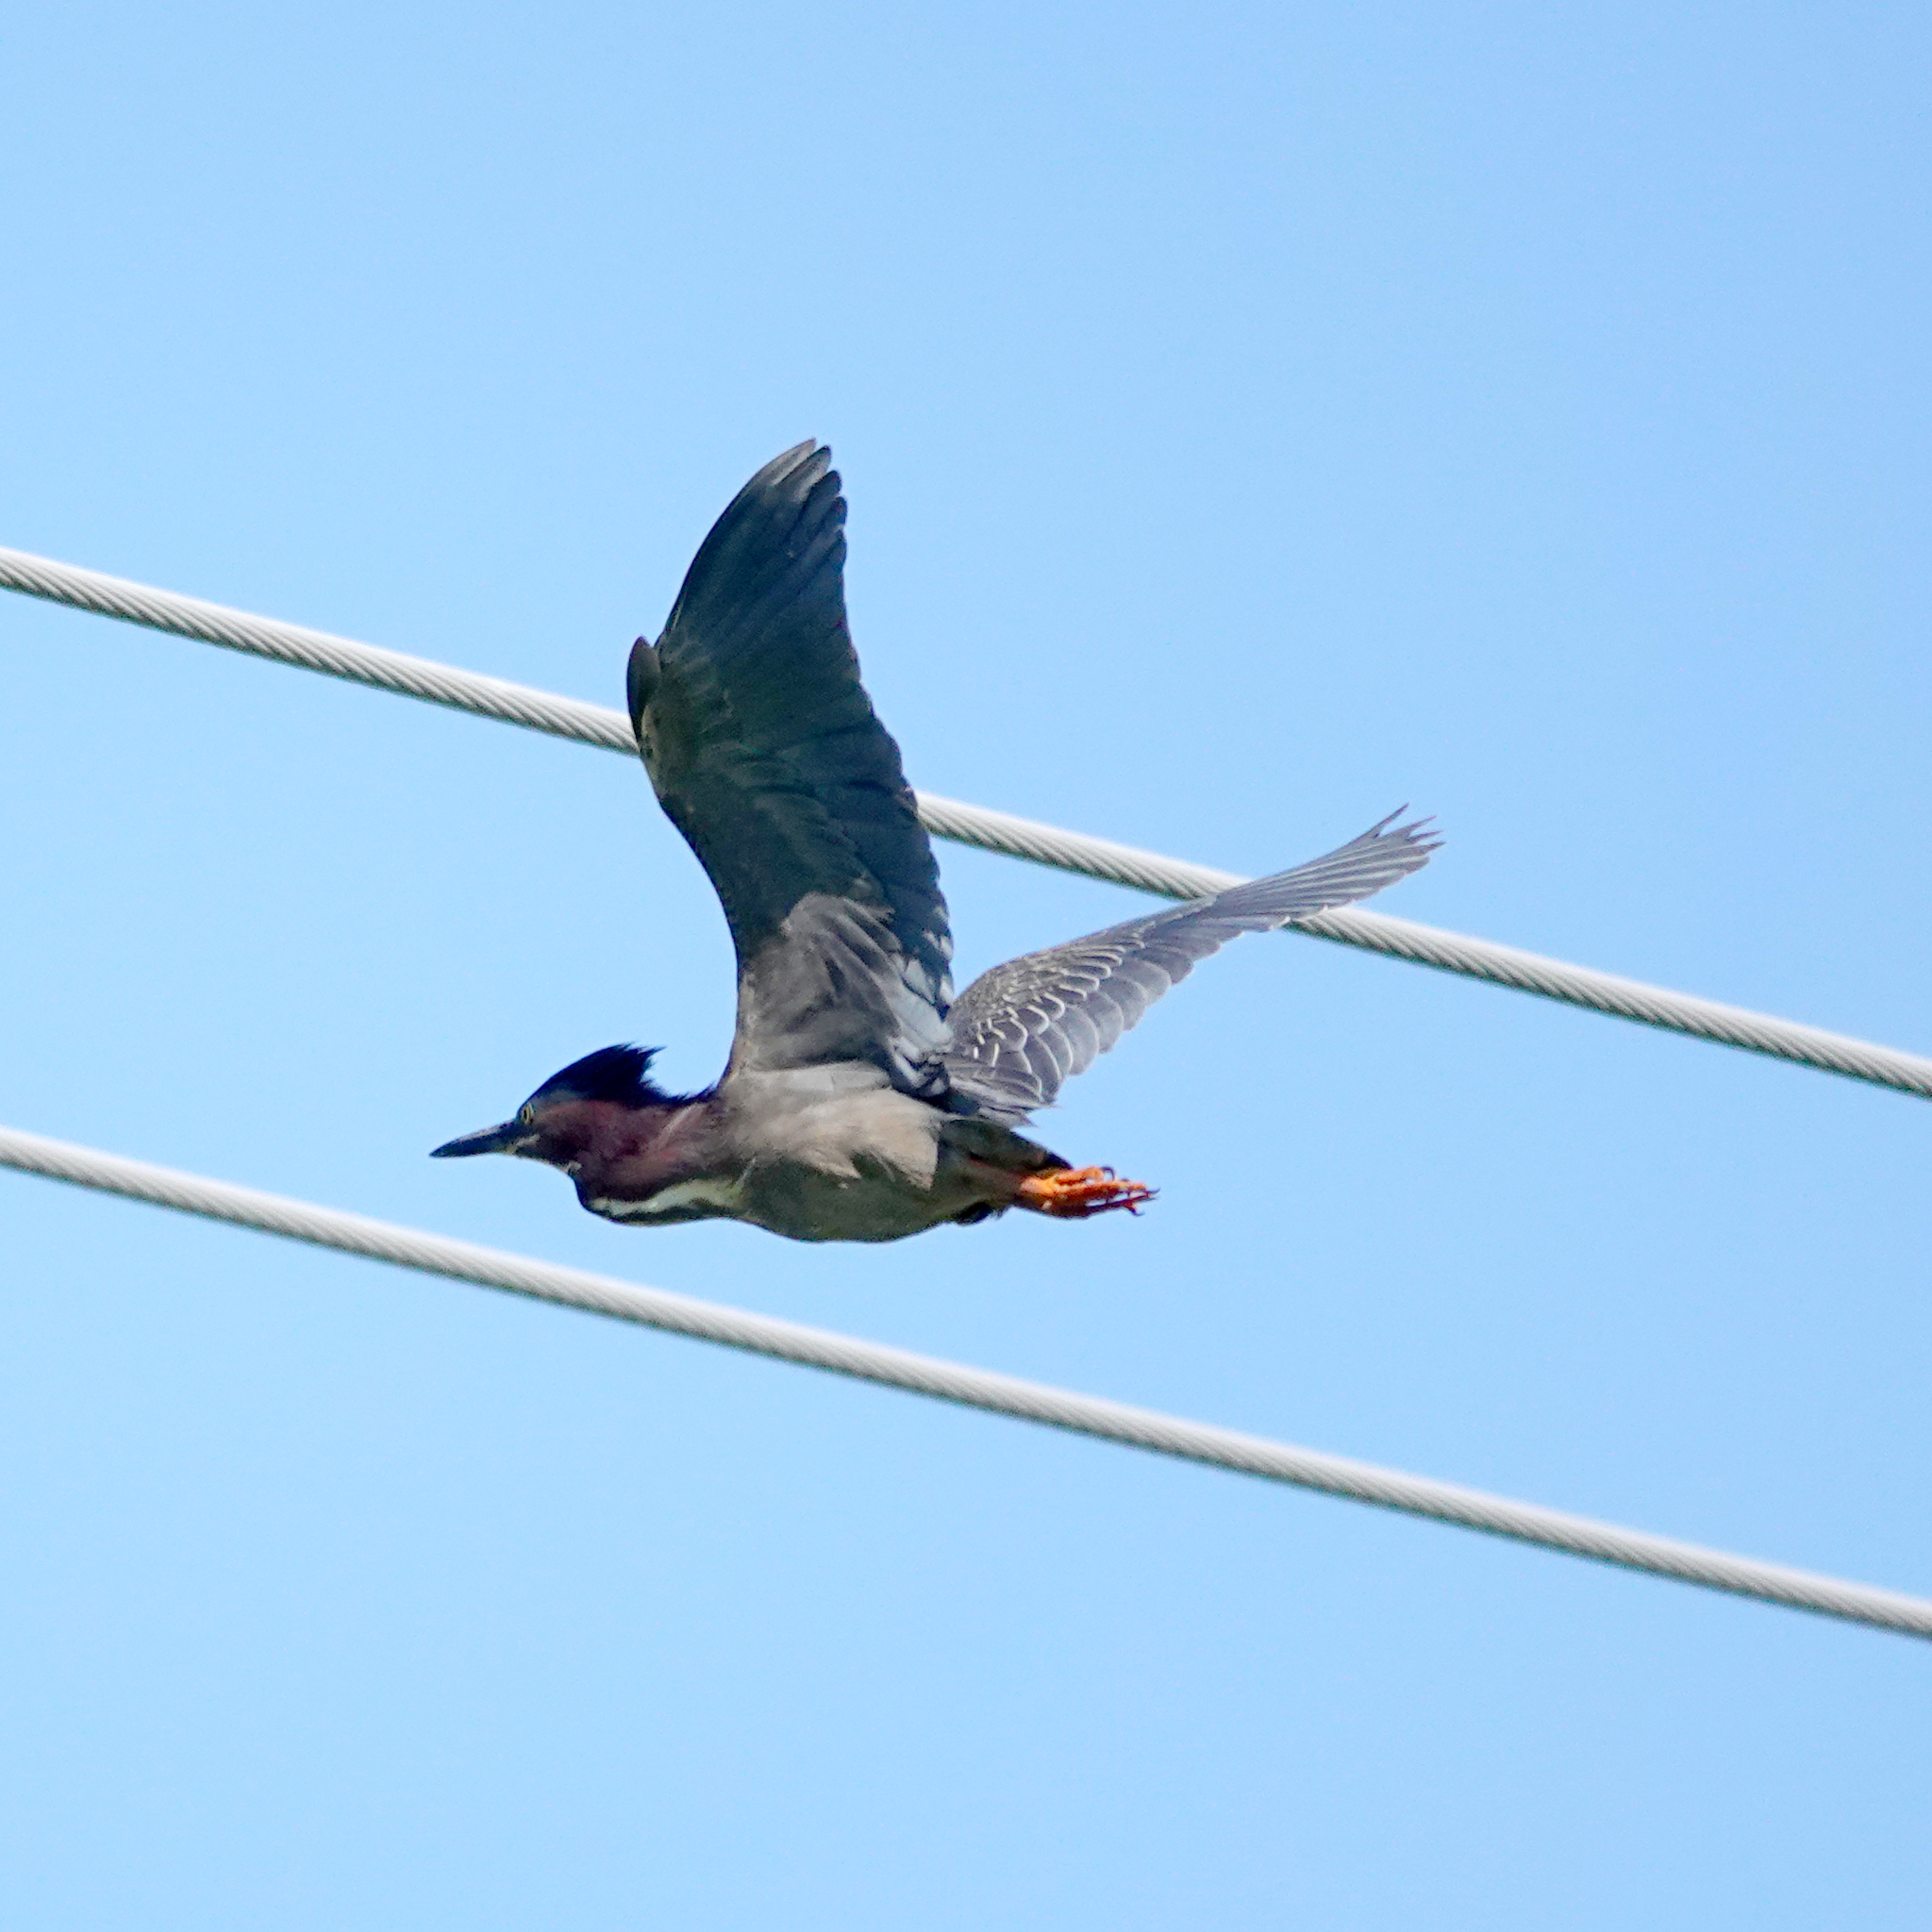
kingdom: Animalia
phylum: Chordata
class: Aves
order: Pelecaniformes
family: Ardeidae
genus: Butorides
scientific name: Butorides virescens
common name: Green heron
